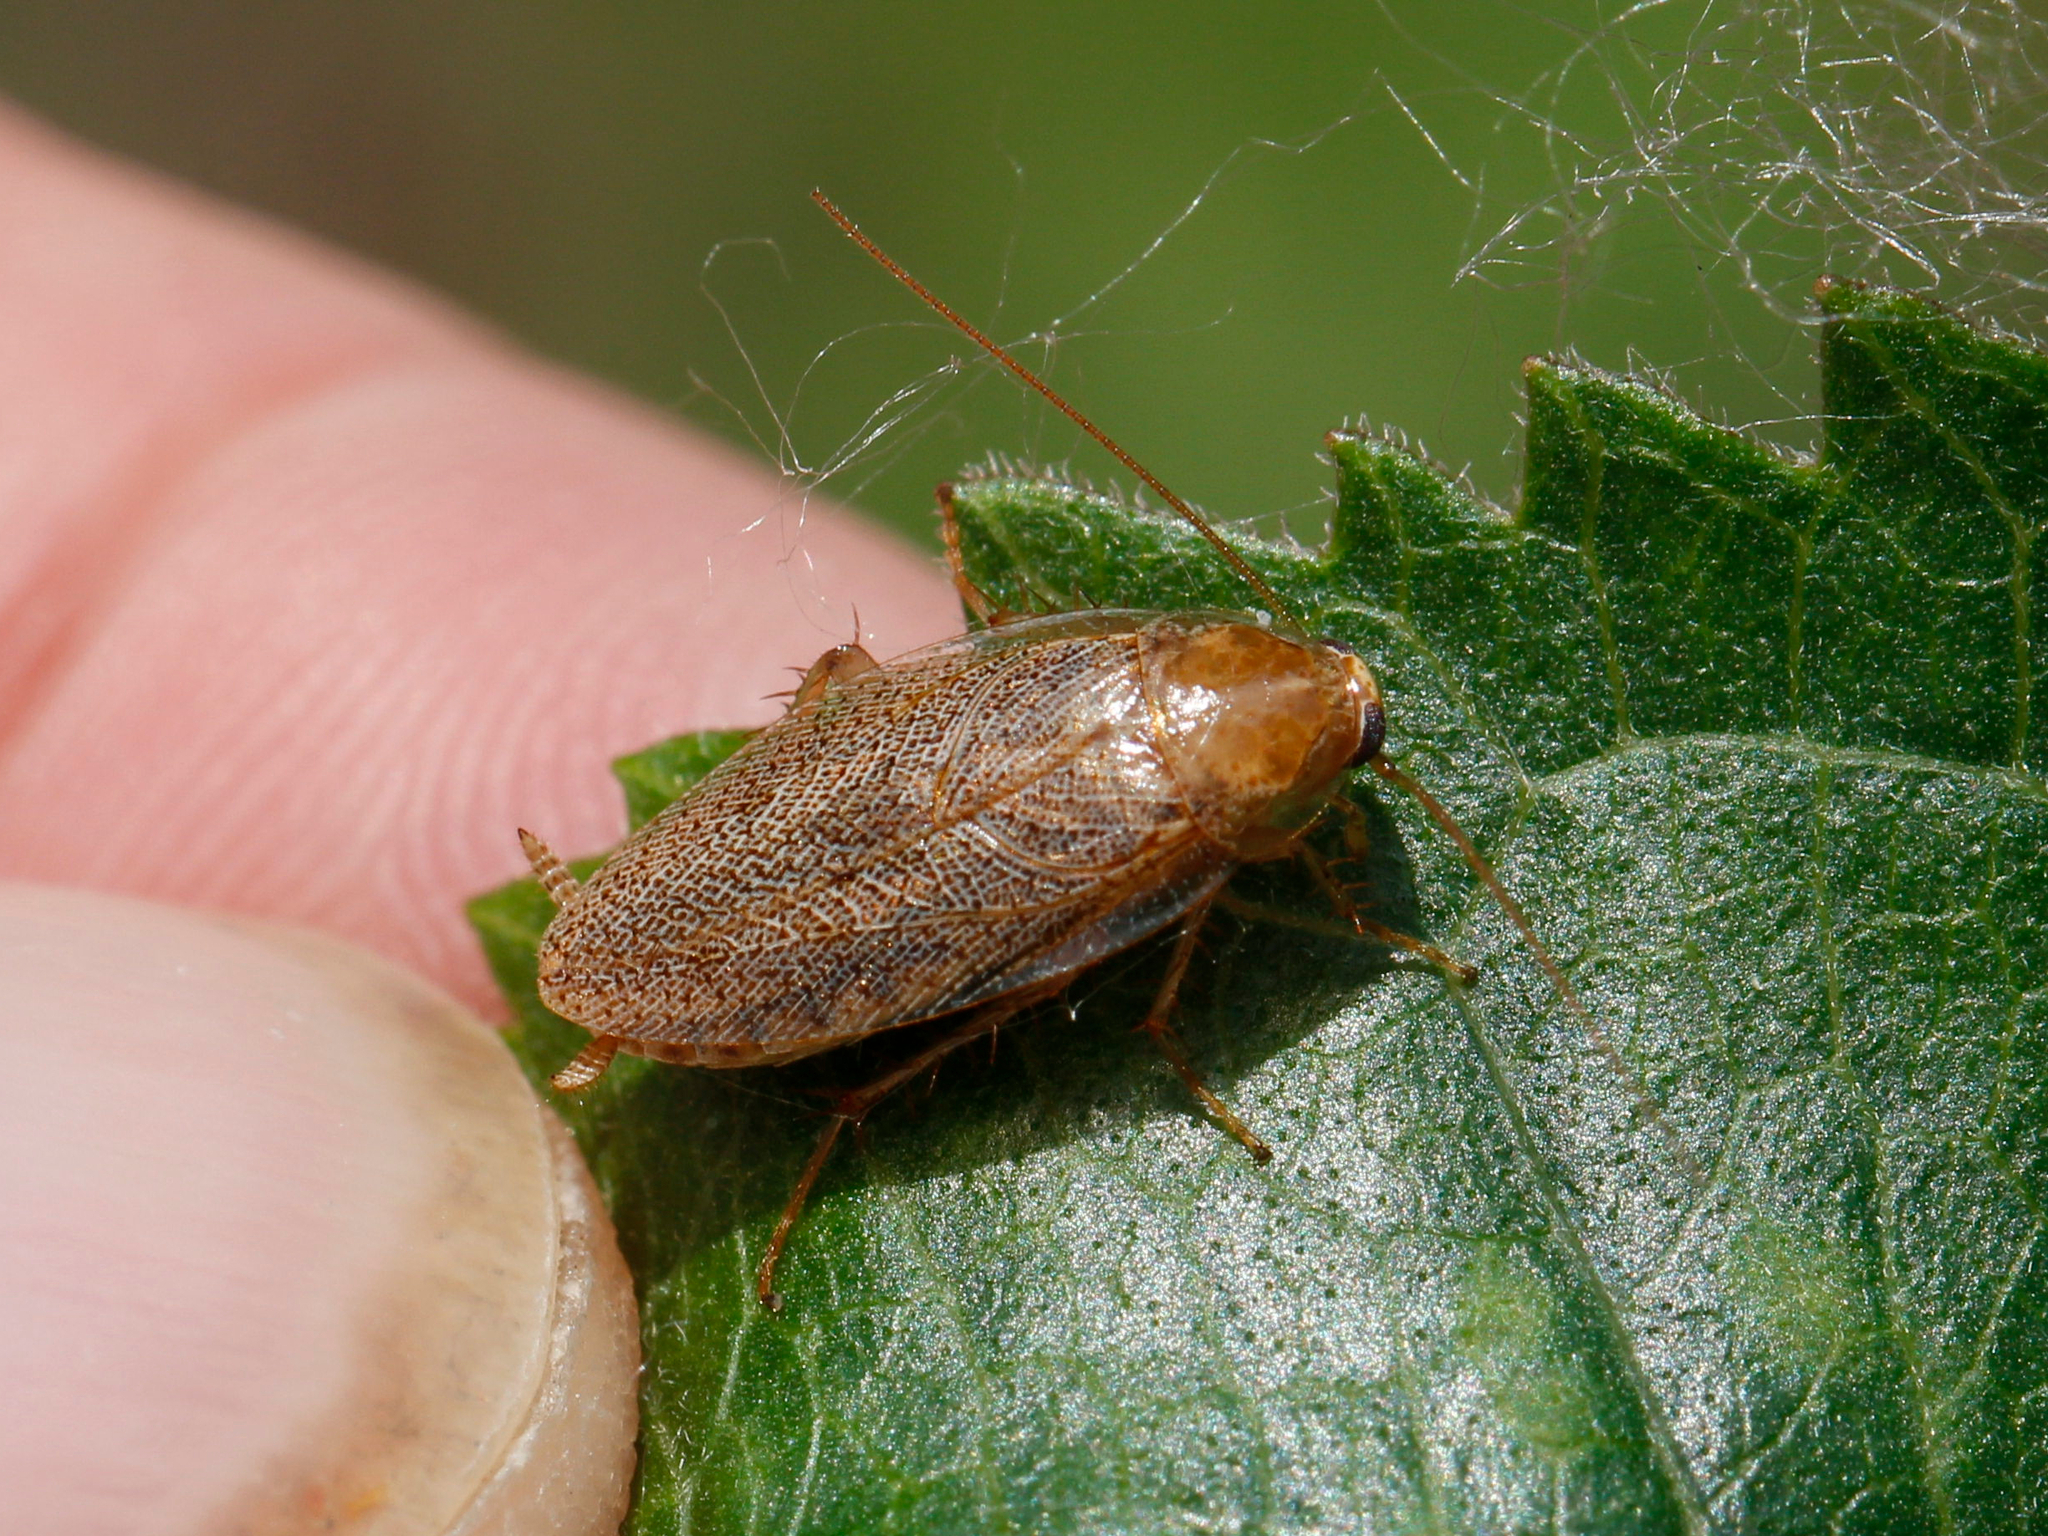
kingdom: Animalia
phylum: Arthropoda
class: Insecta
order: Blattodea
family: Ectobiidae
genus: Ectobius
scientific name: Ectobius pallidus
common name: Tawny cockroach
